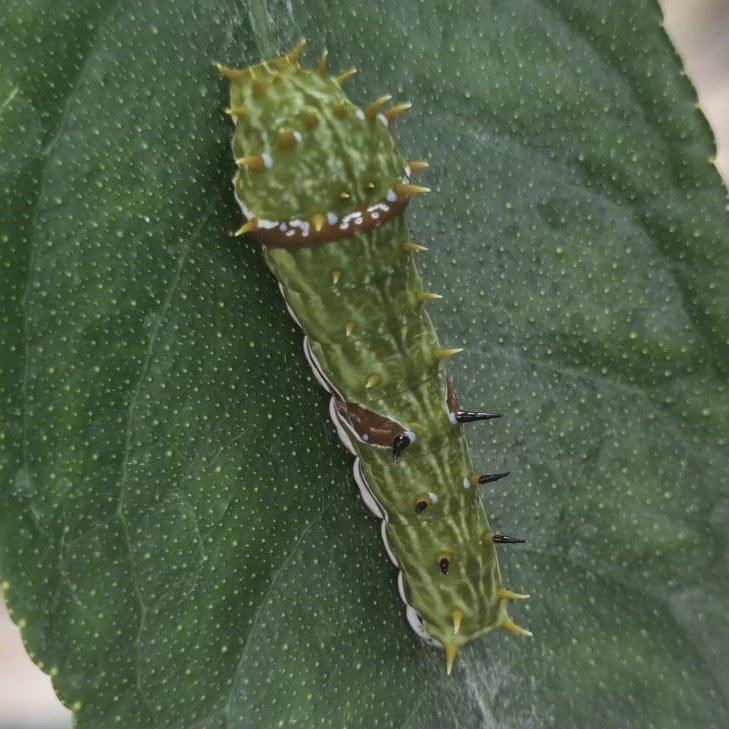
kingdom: Animalia
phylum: Arthropoda
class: Insecta
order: Lepidoptera
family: Papilionidae
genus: Papilio
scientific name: Papilio aegeus
